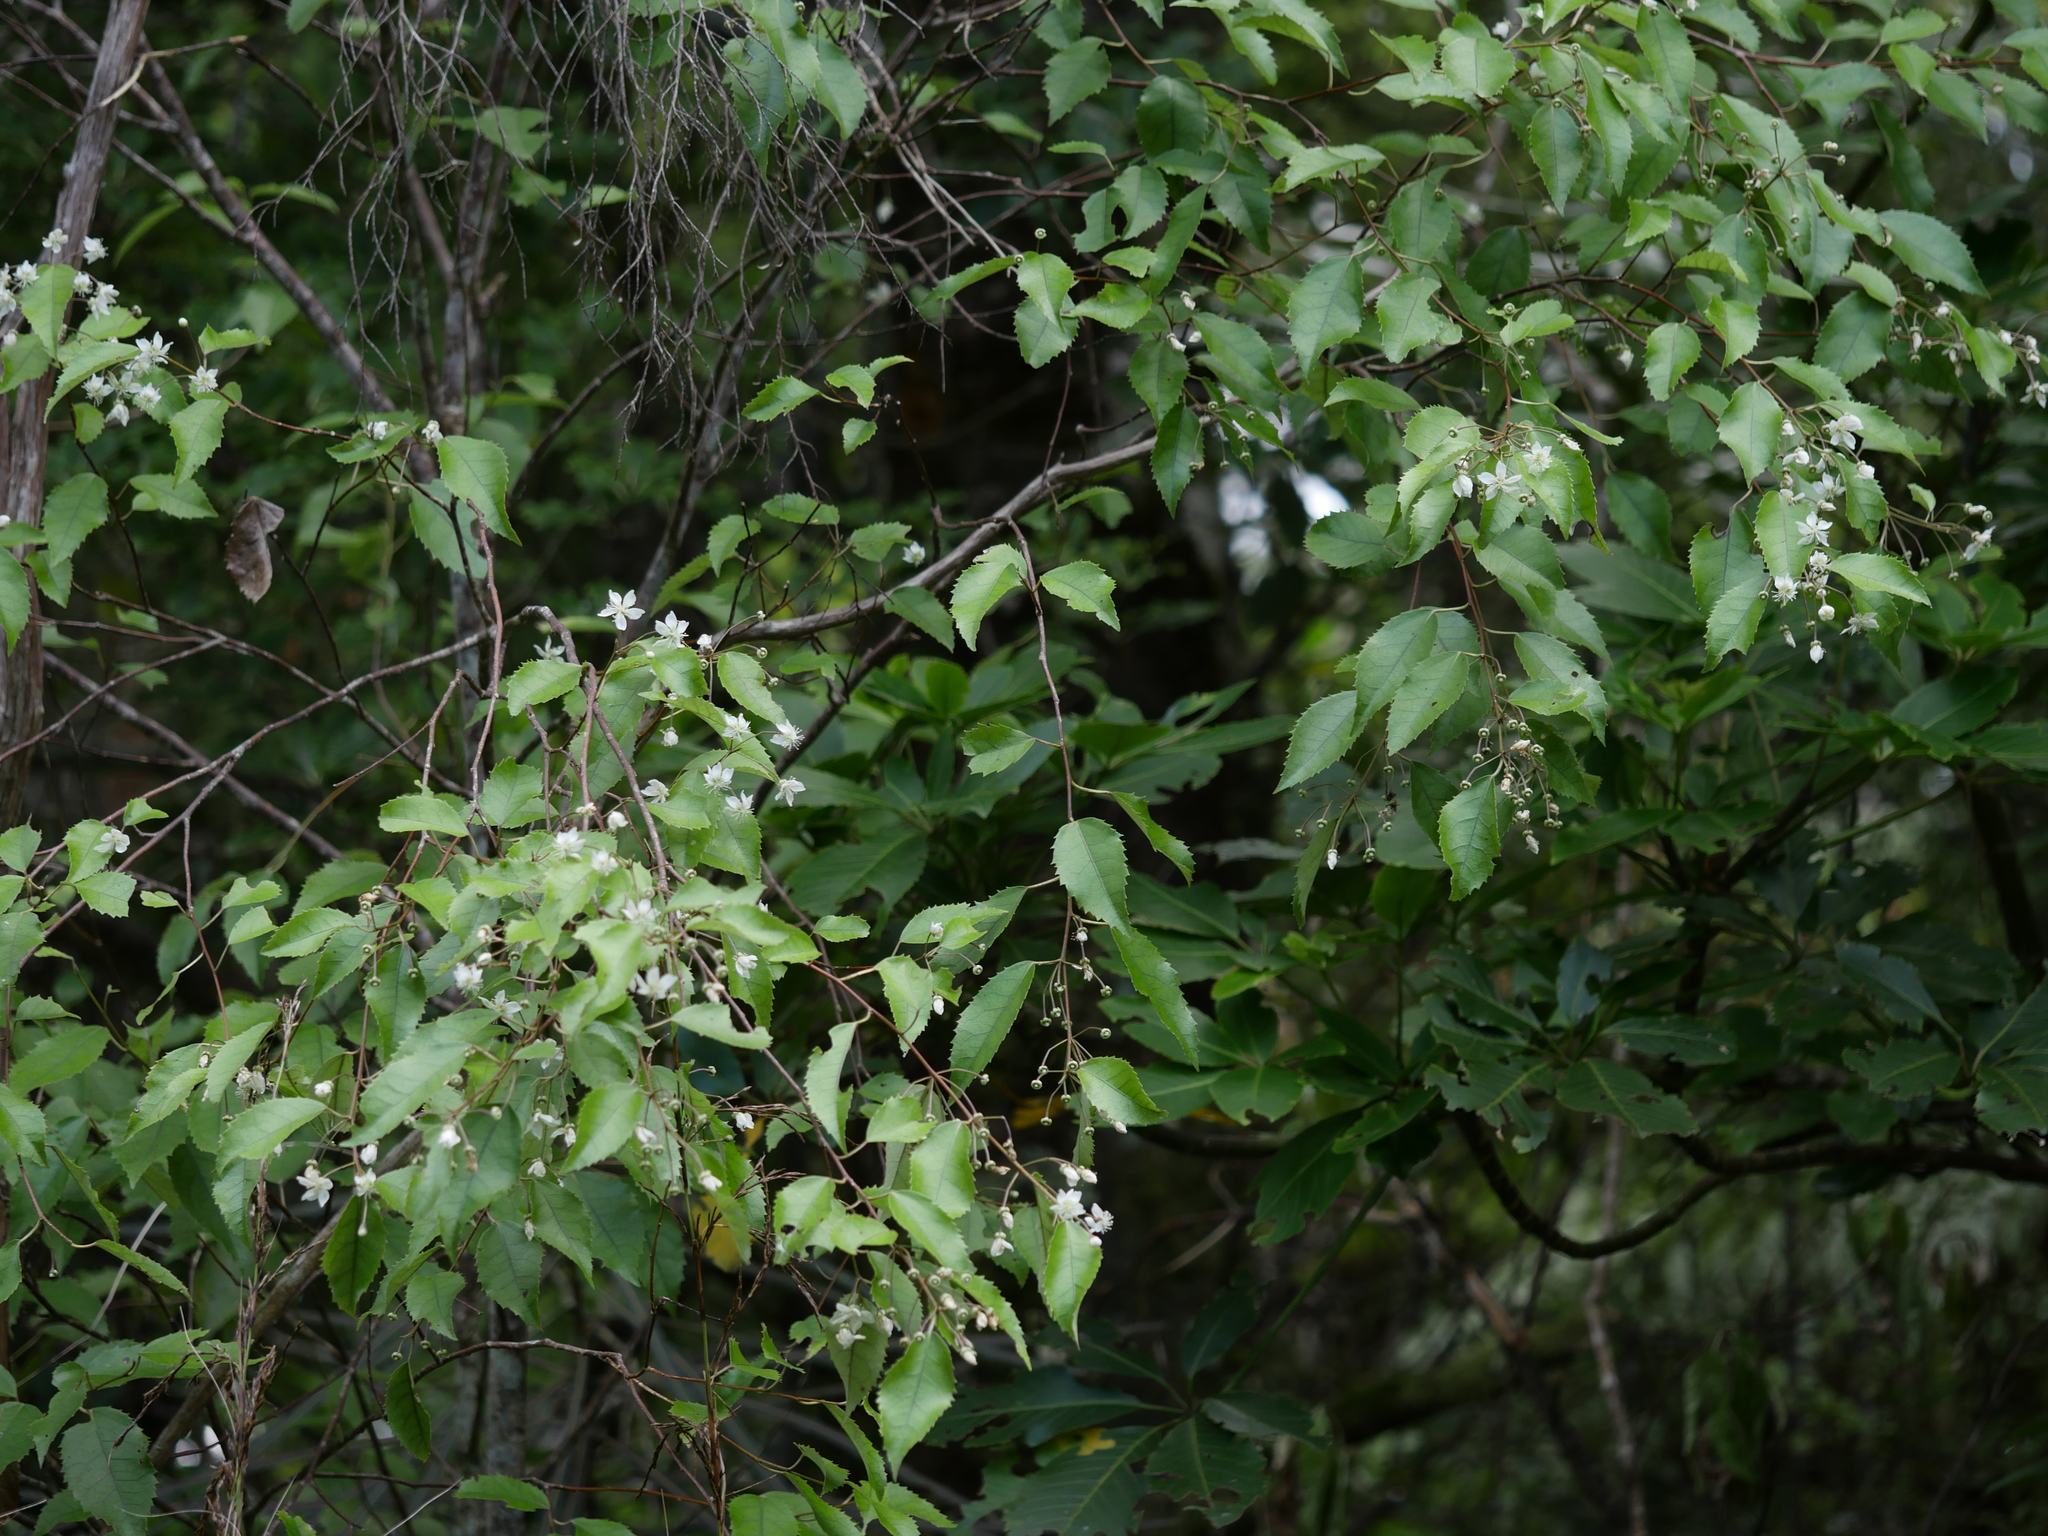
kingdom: Plantae
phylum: Tracheophyta
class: Magnoliopsida
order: Malvales
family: Malvaceae
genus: Hoheria
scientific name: Hoheria populnea
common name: Lacebark
